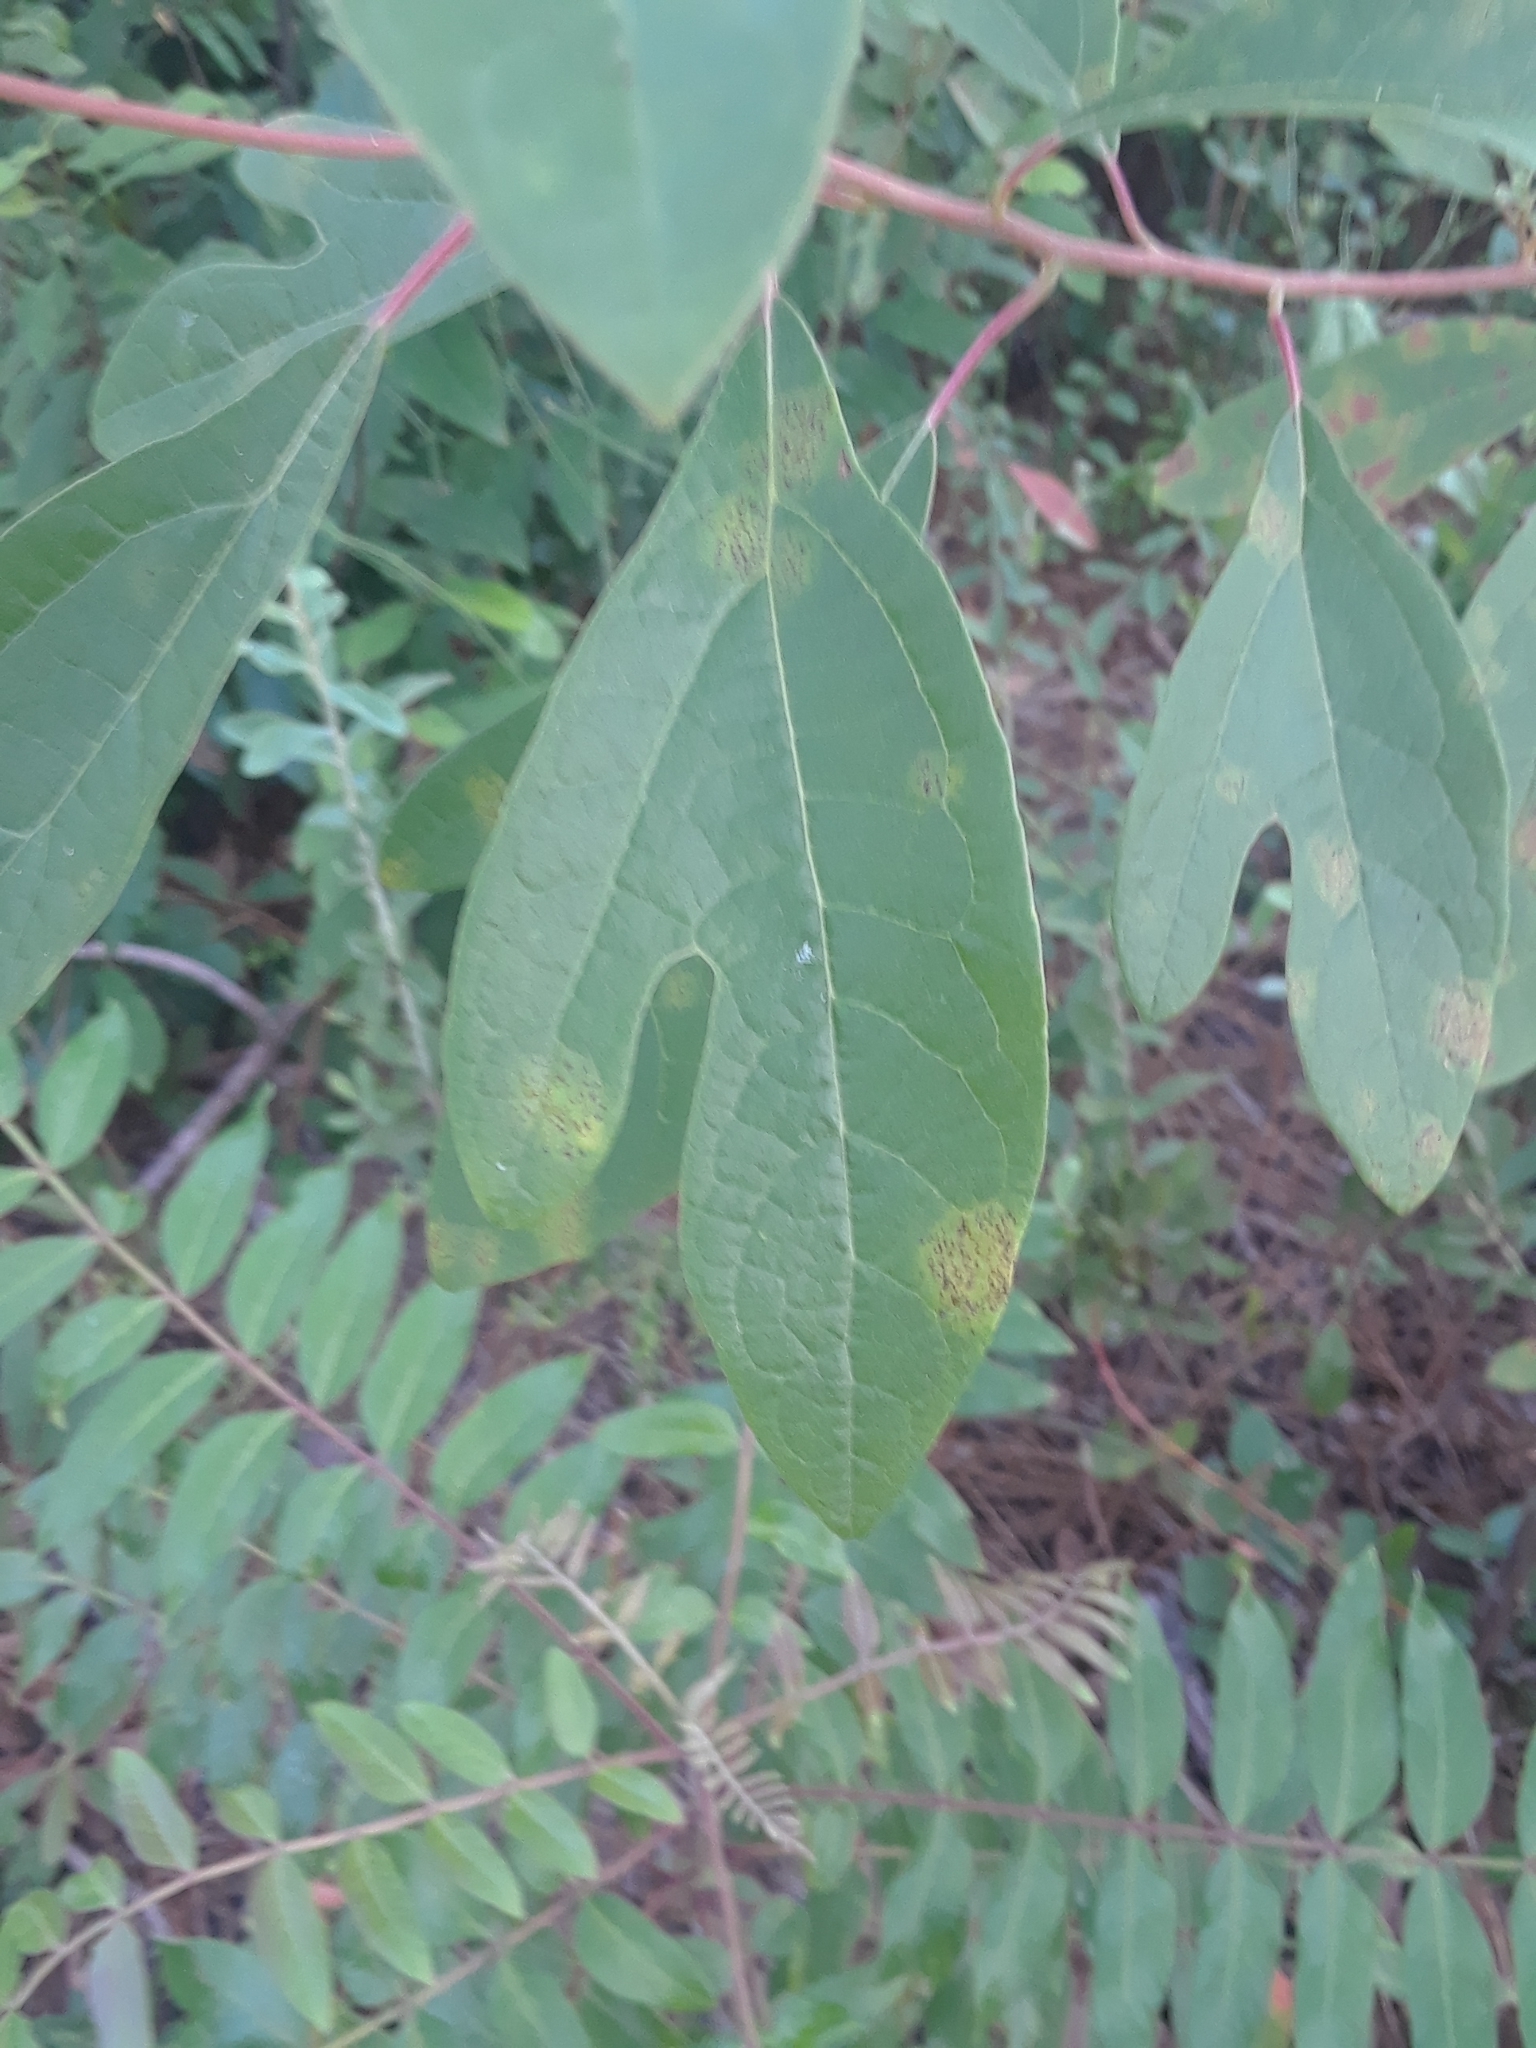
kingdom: Plantae
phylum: Tracheophyta
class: Magnoliopsida
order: Laurales
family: Lauraceae
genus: Sassafras
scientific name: Sassafras albidum
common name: Sassafras
